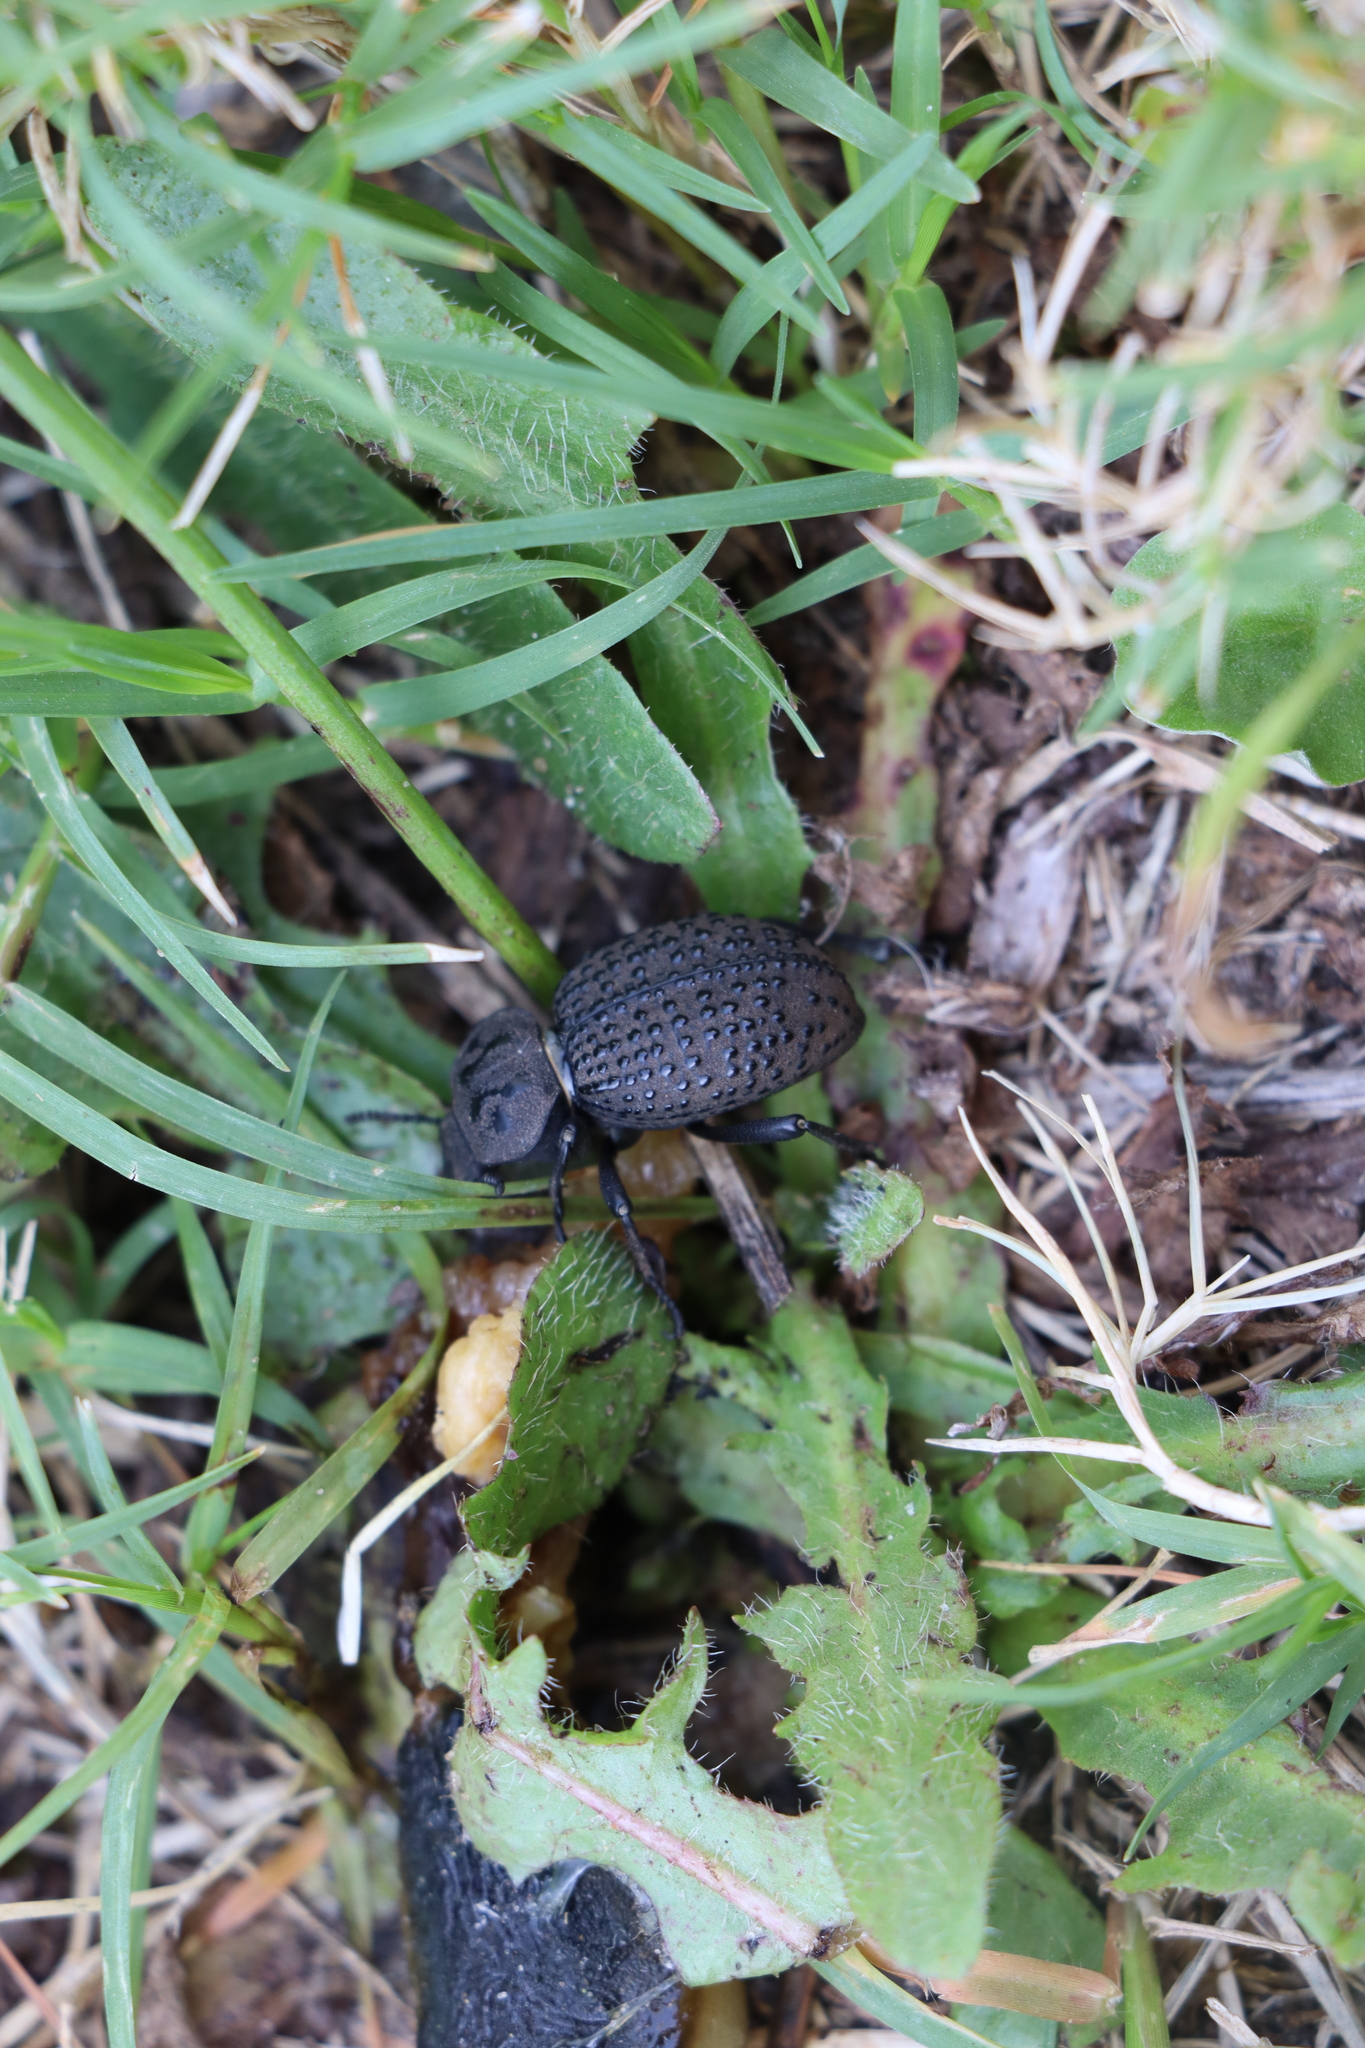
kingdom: Animalia
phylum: Arthropoda
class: Insecta
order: Coleoptera
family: Tenebrionidae
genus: Scotobius
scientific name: Scotobius pilularius
